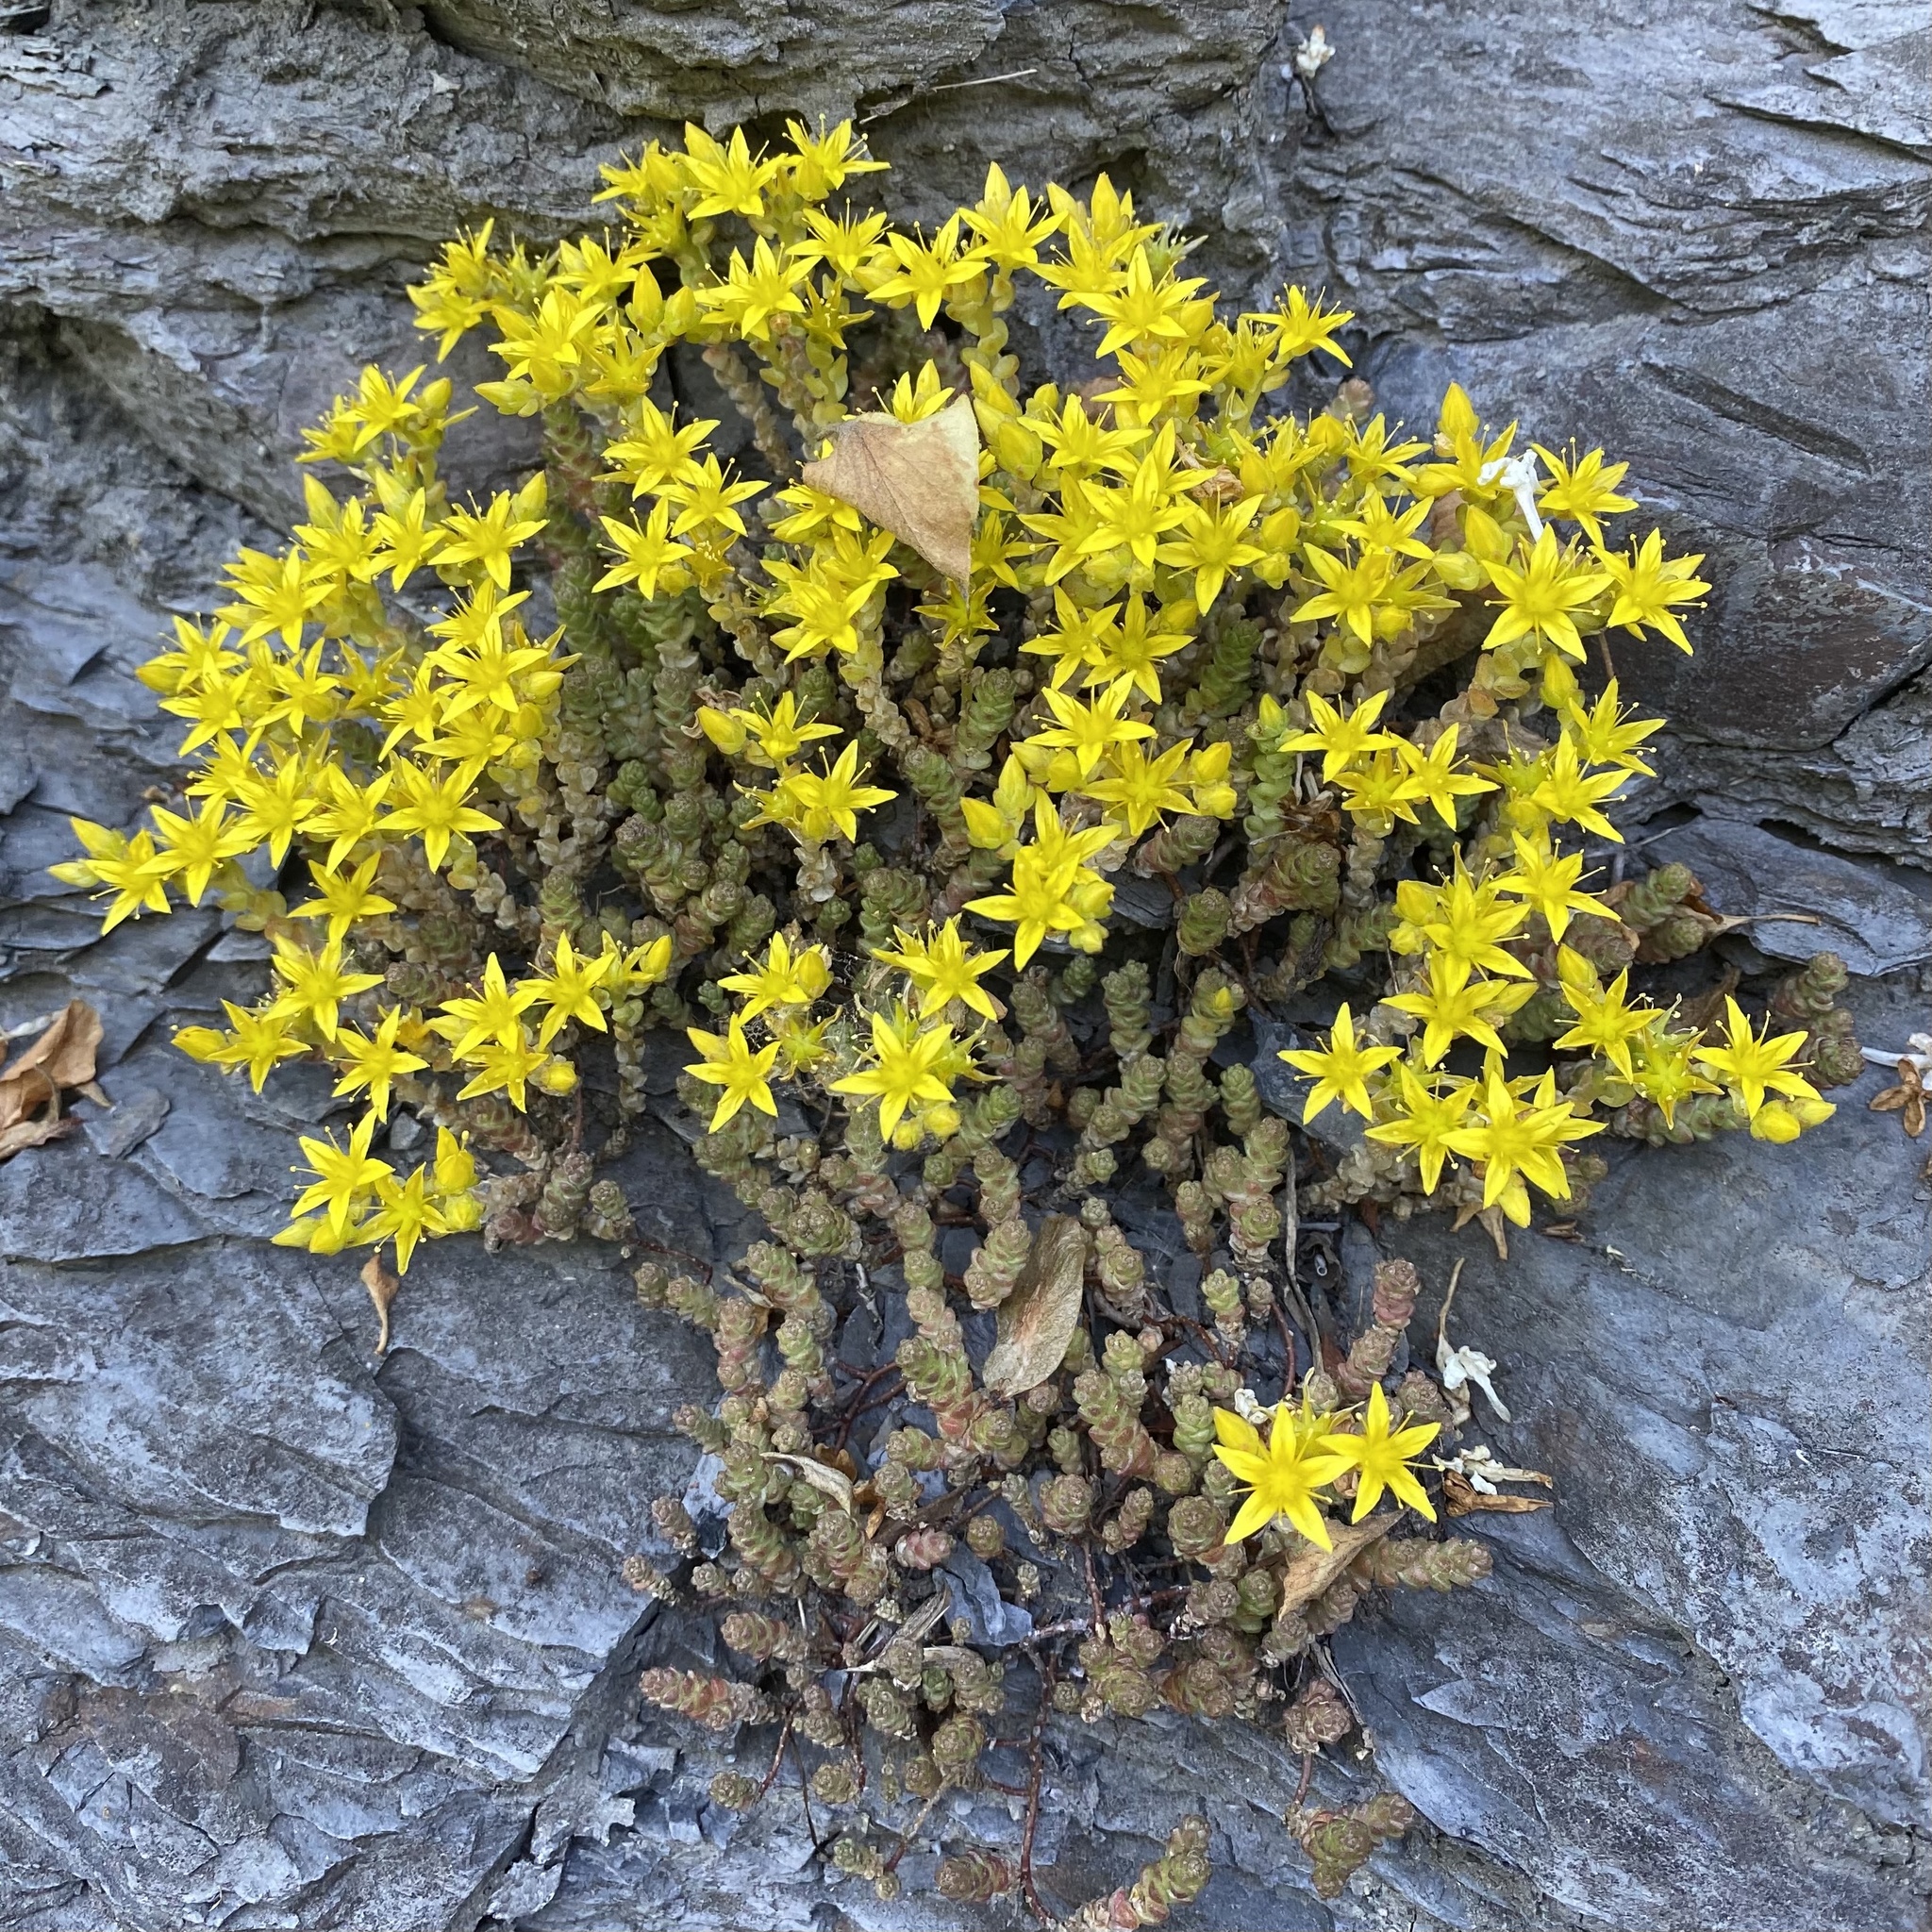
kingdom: Plantae
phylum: Tracheophyta
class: Magnoliopsida
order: Saxifragales
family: Crassulaceae
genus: Sedum
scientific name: Sedum acre
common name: Biting stonecrop
